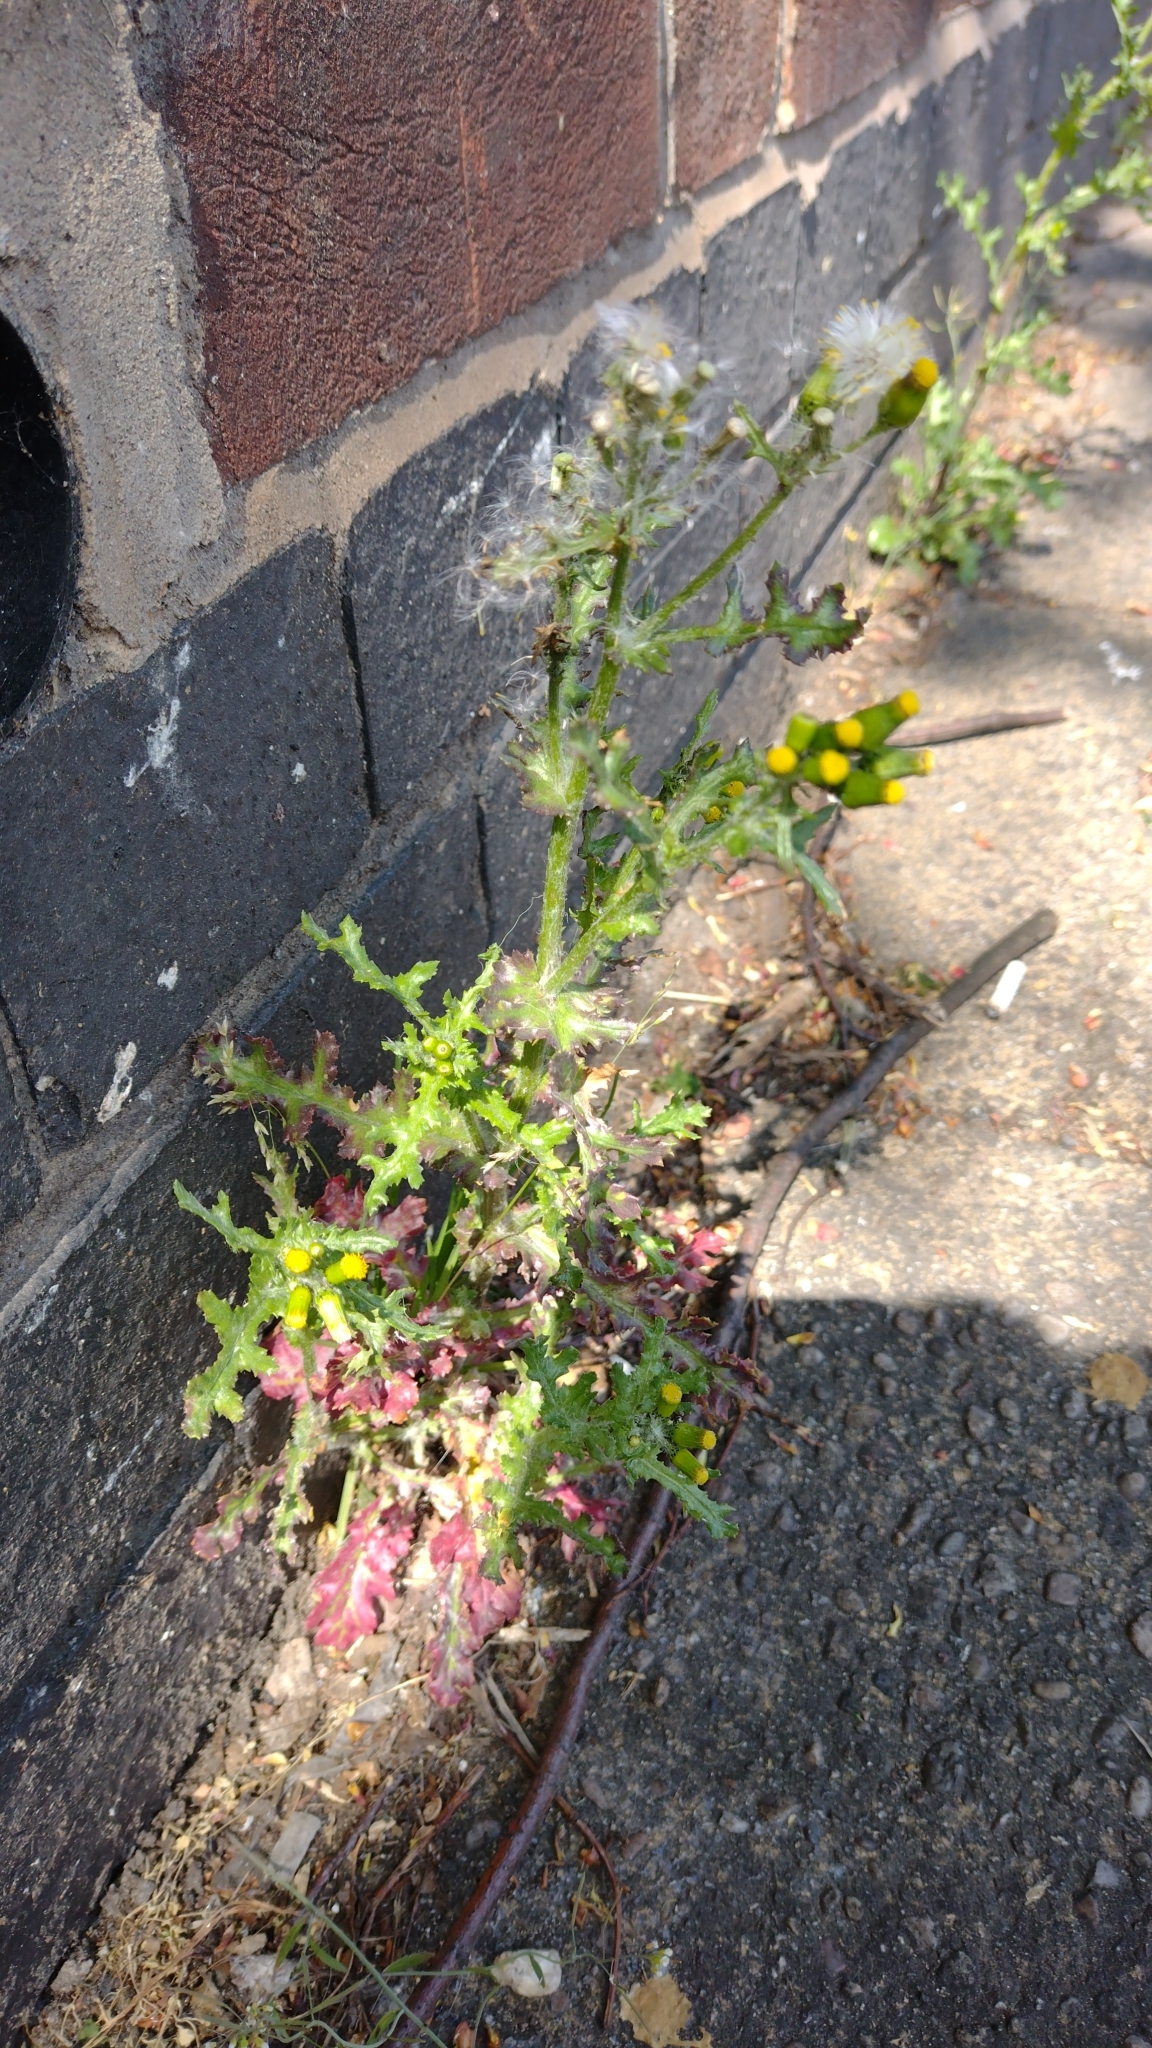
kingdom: Plantae
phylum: Tracheophyta
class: Magnoliopsida
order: Asterales
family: Asteraceae
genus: Senecio
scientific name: Senecio vulgaris
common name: Old-man-in-the-spring
